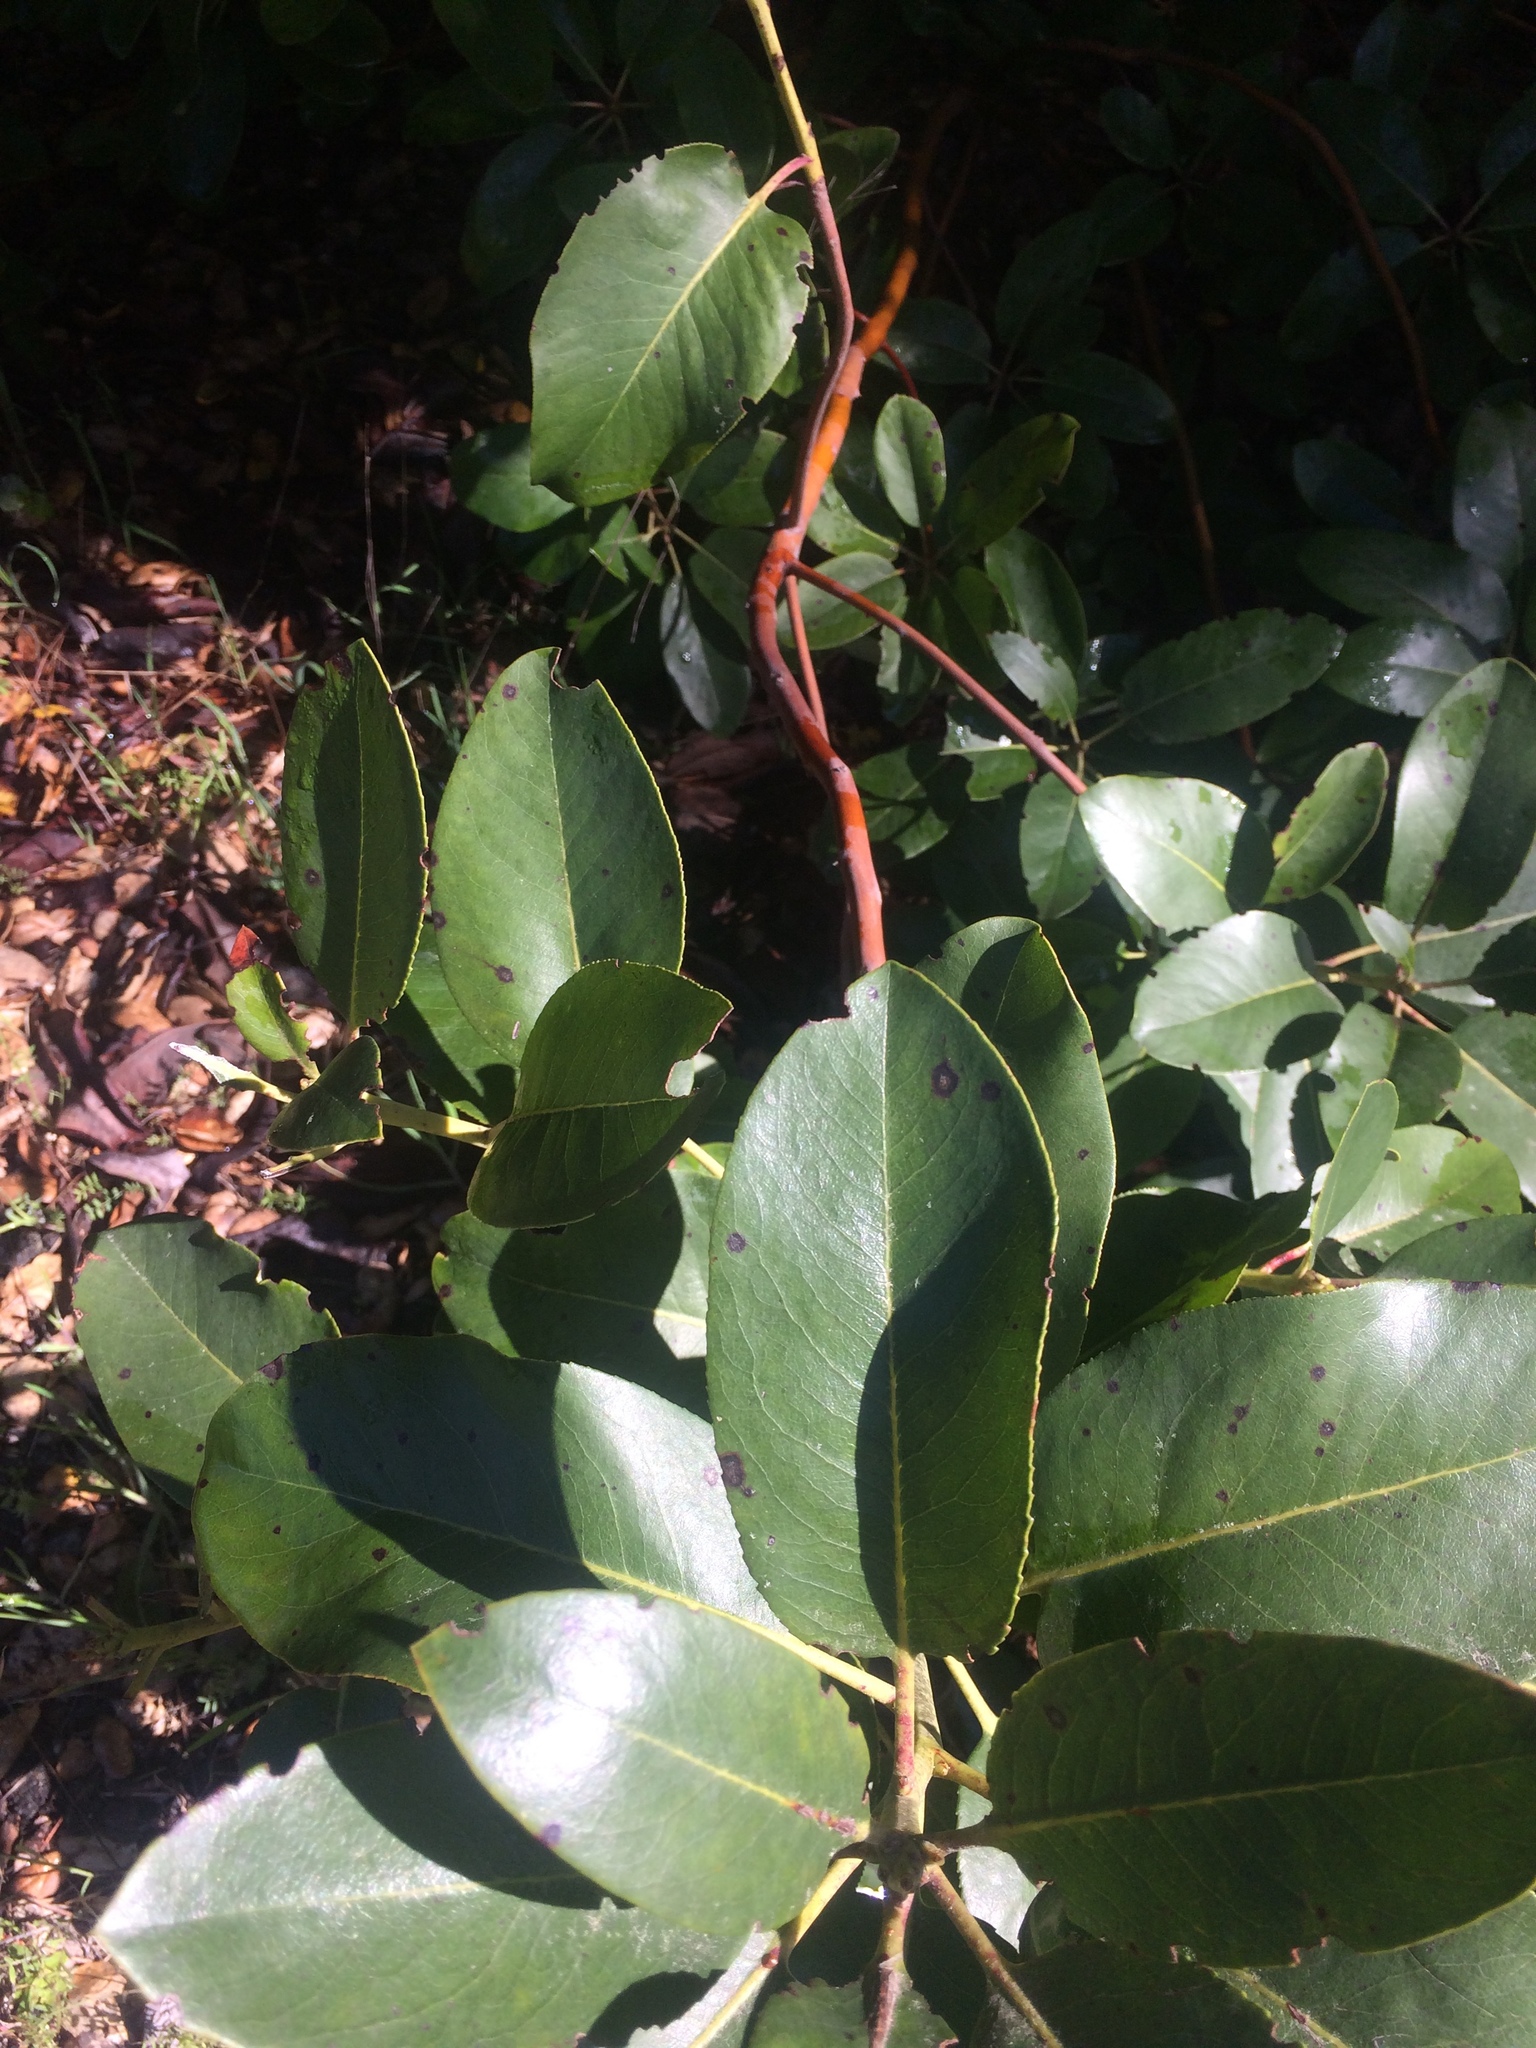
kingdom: Plantae
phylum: Tracheophyta
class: Magnoliopsida
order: Ericales
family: Ericaceae
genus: Arbutus
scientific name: Arbutus menziesii
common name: Pacific madrone
